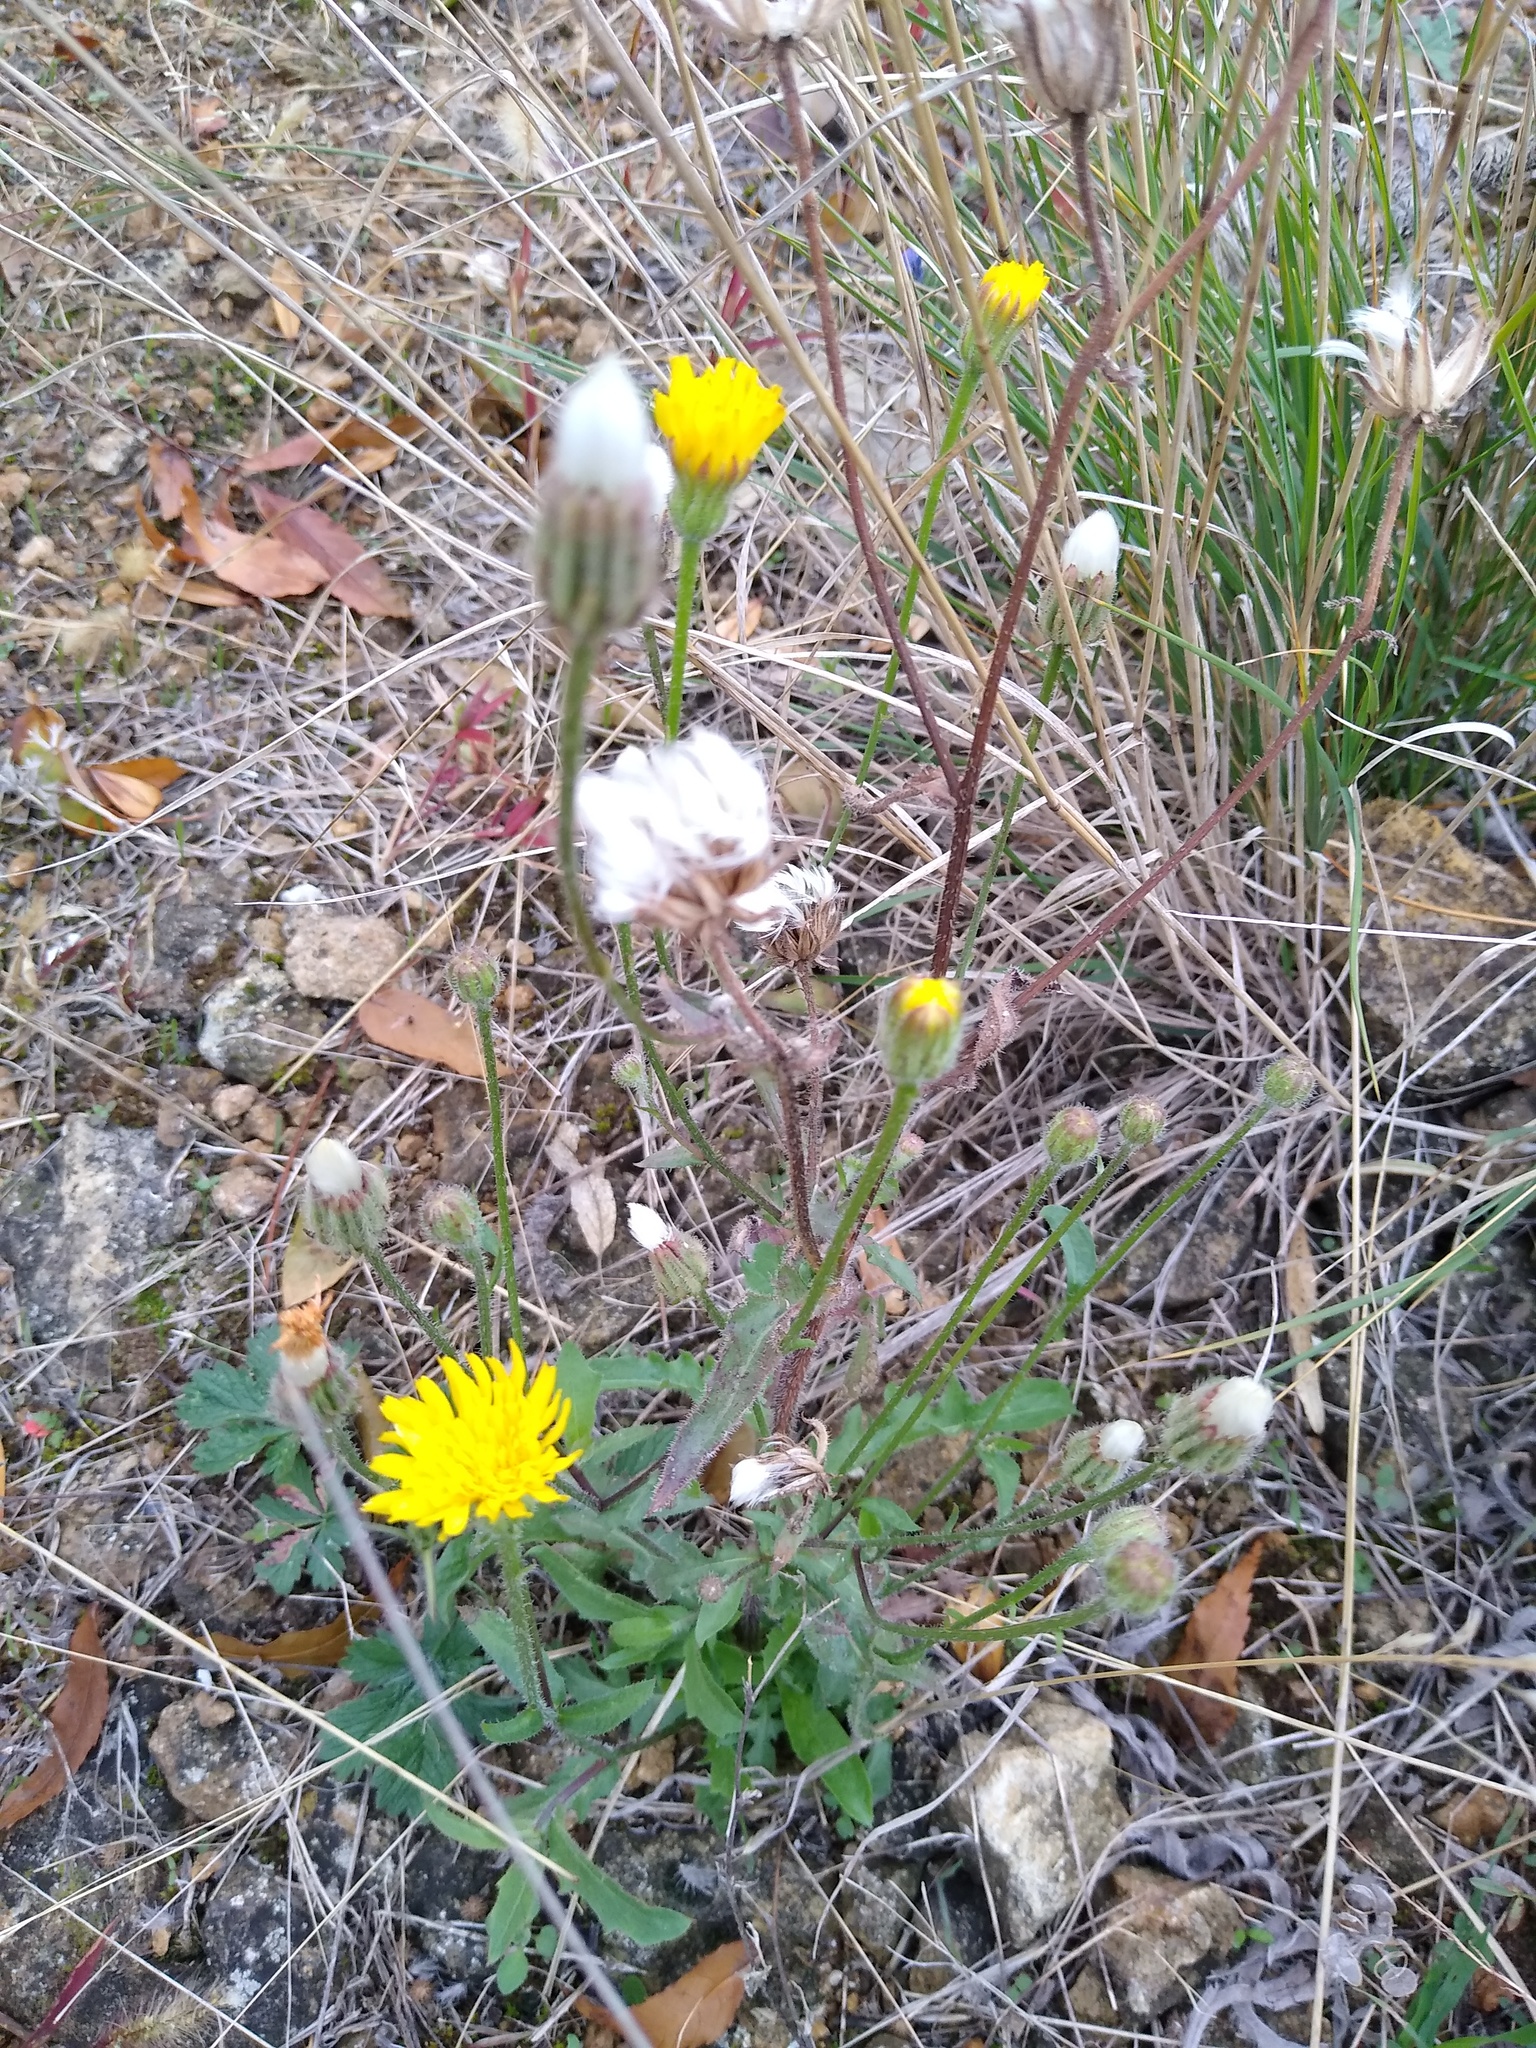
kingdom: Plantae
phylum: Tracheophyta
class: Magnoliopsida
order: Asterales
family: Asteraceae
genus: Crepis
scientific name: Crepis foetida
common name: Stinking hawk's-beard
